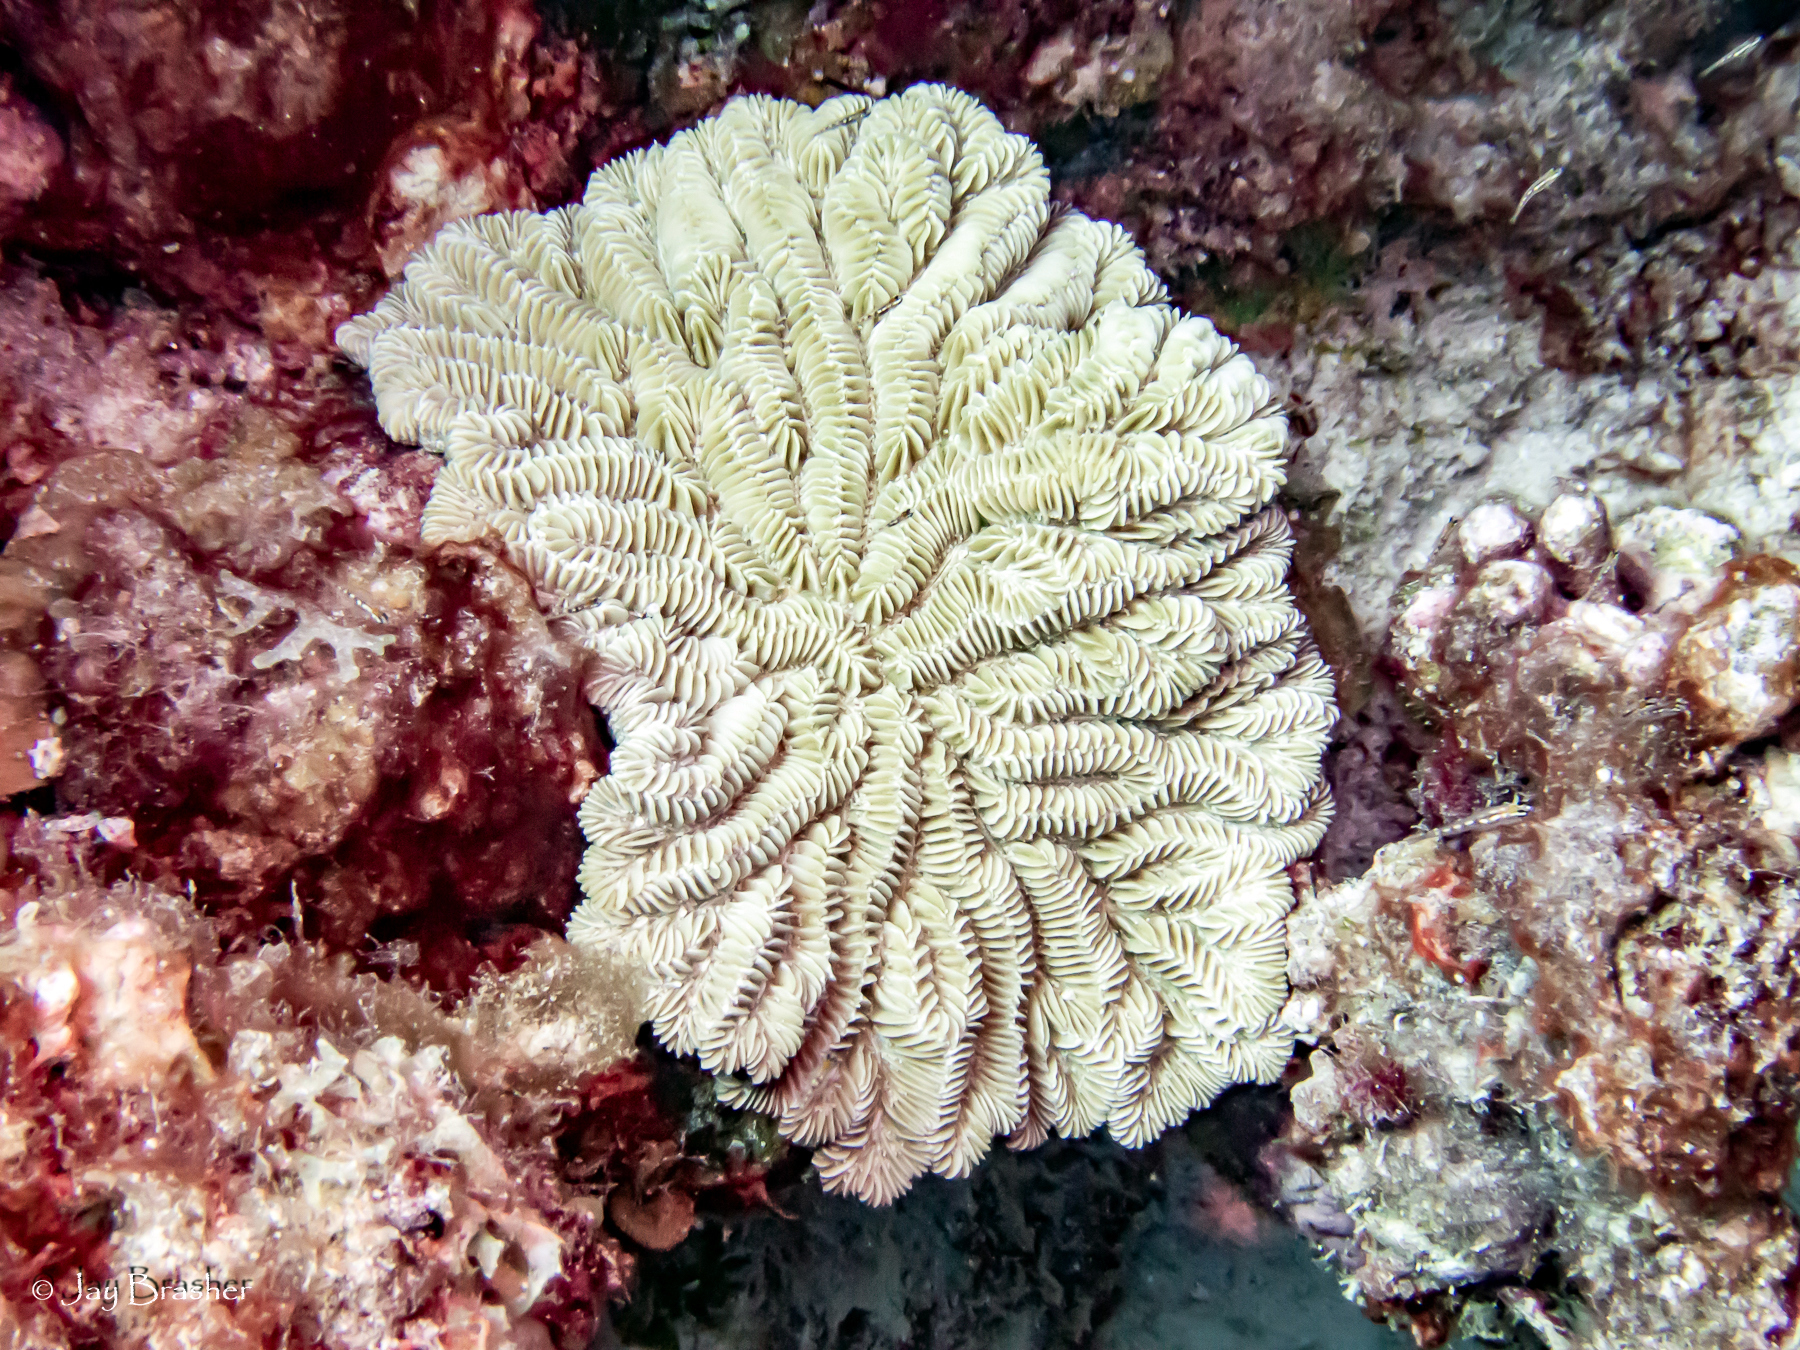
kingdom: Animalia
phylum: Cnidaria
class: Anthozoa
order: Scleractinia
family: Meandrinidae
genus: Meandrina
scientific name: Meandrina meandrites
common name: Maze coral
